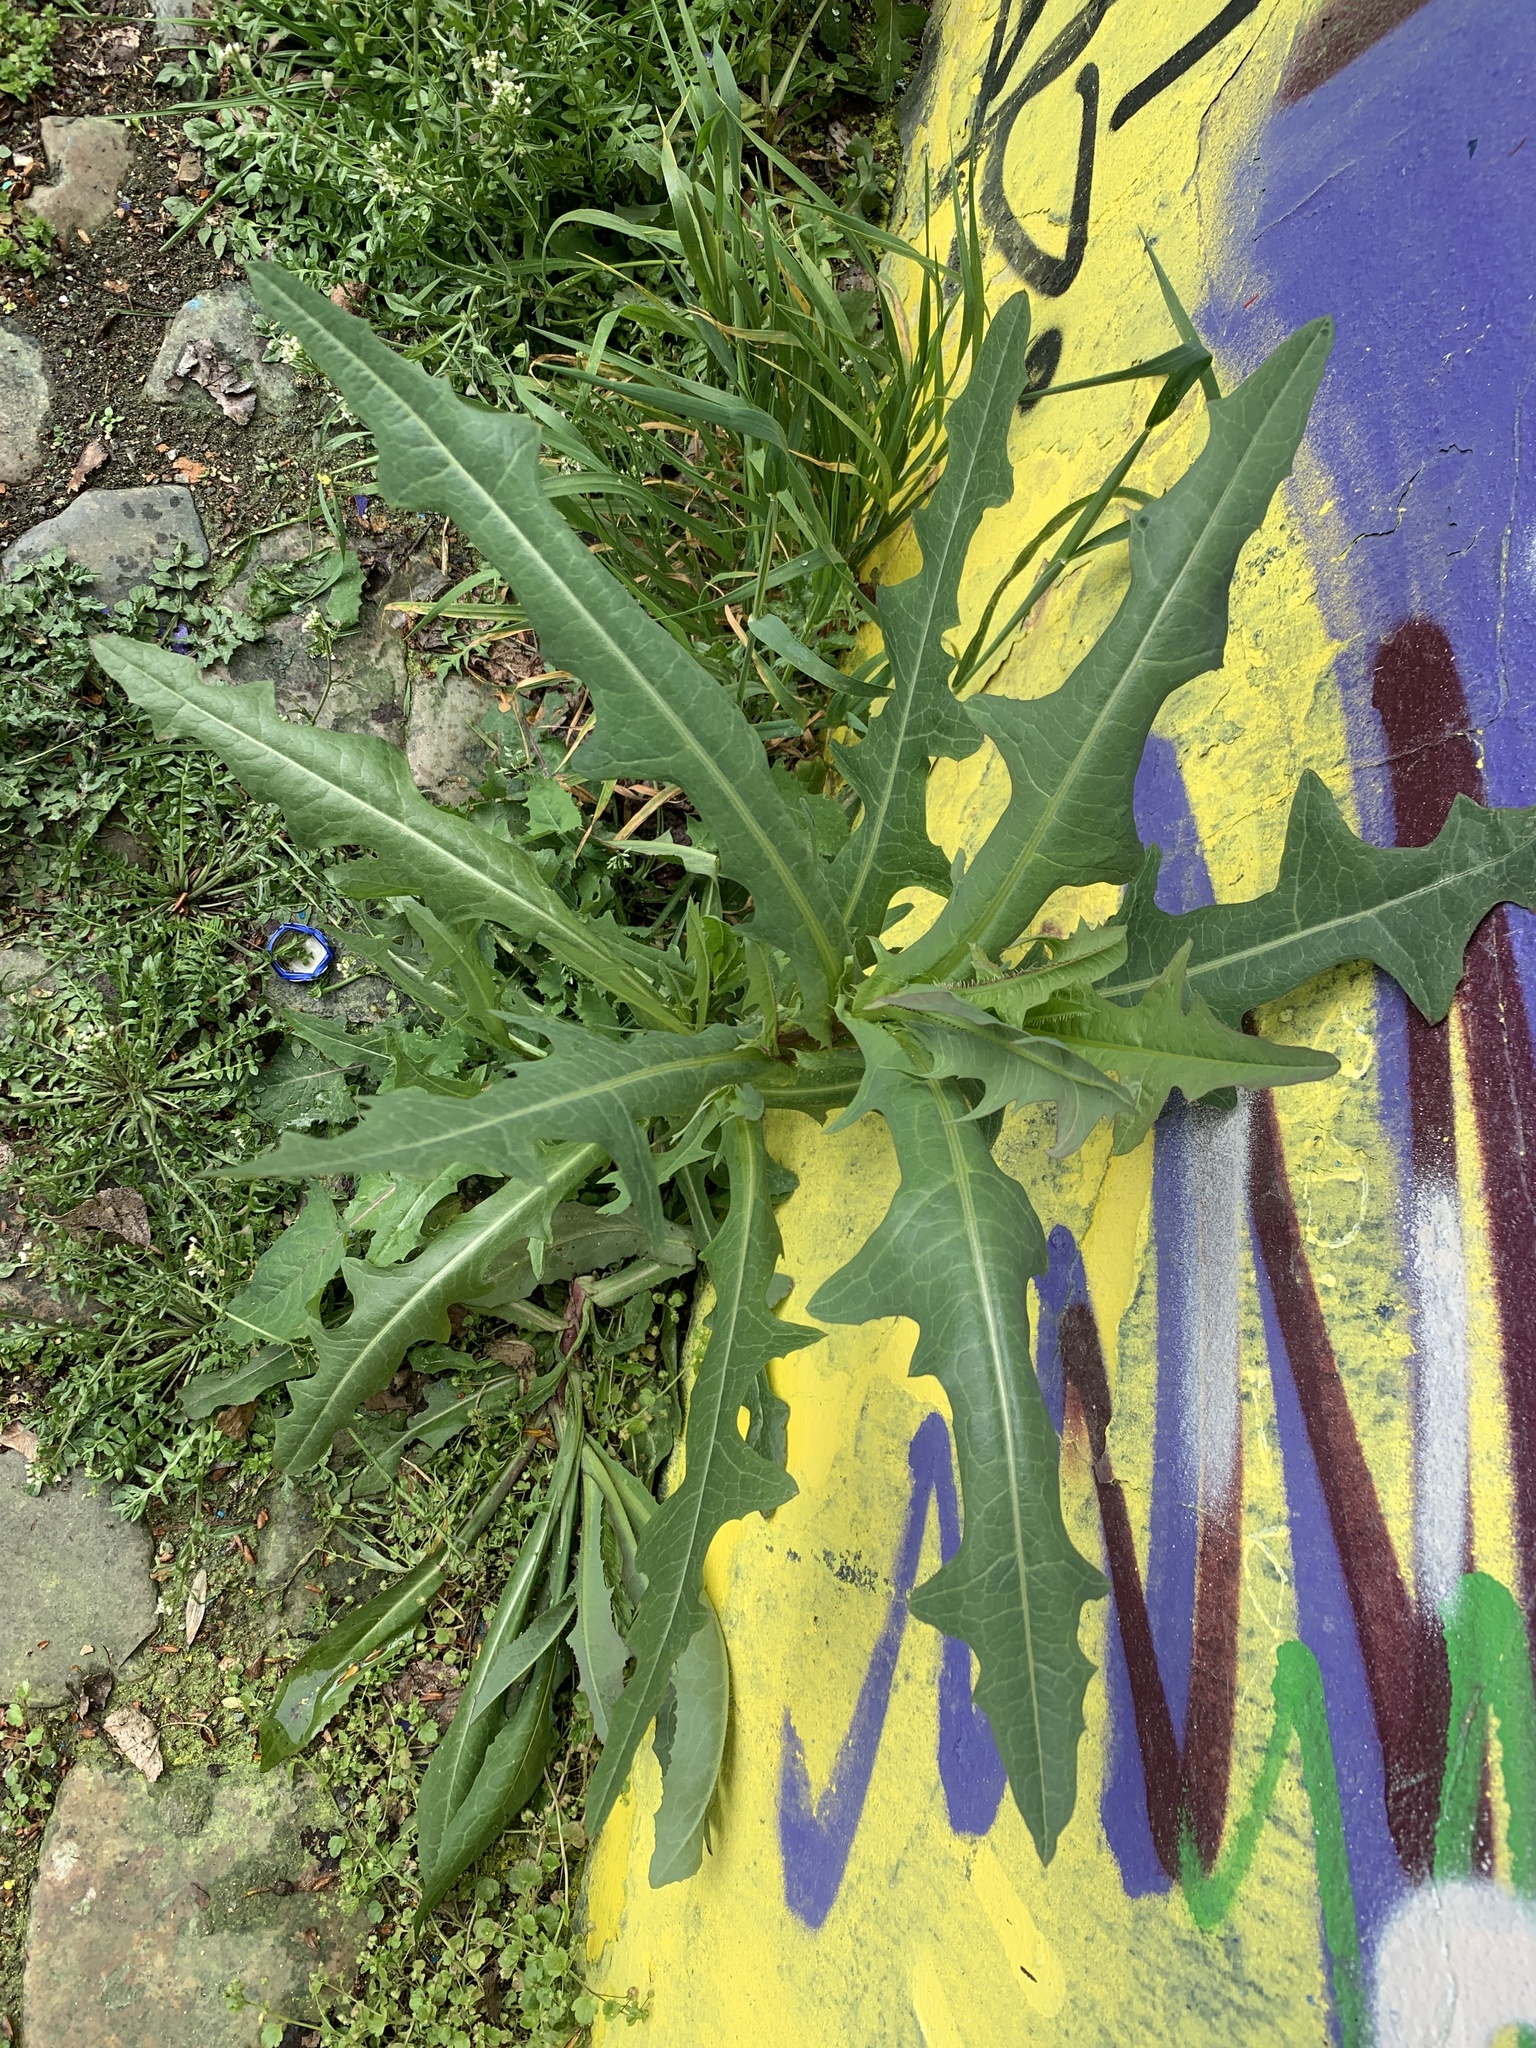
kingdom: Plantae
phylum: Tracheophyta
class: Magnoliopsida
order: Asterales
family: Asteraceae
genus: Lactuca
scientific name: Lactuca serriola
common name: Prickly lettuce
